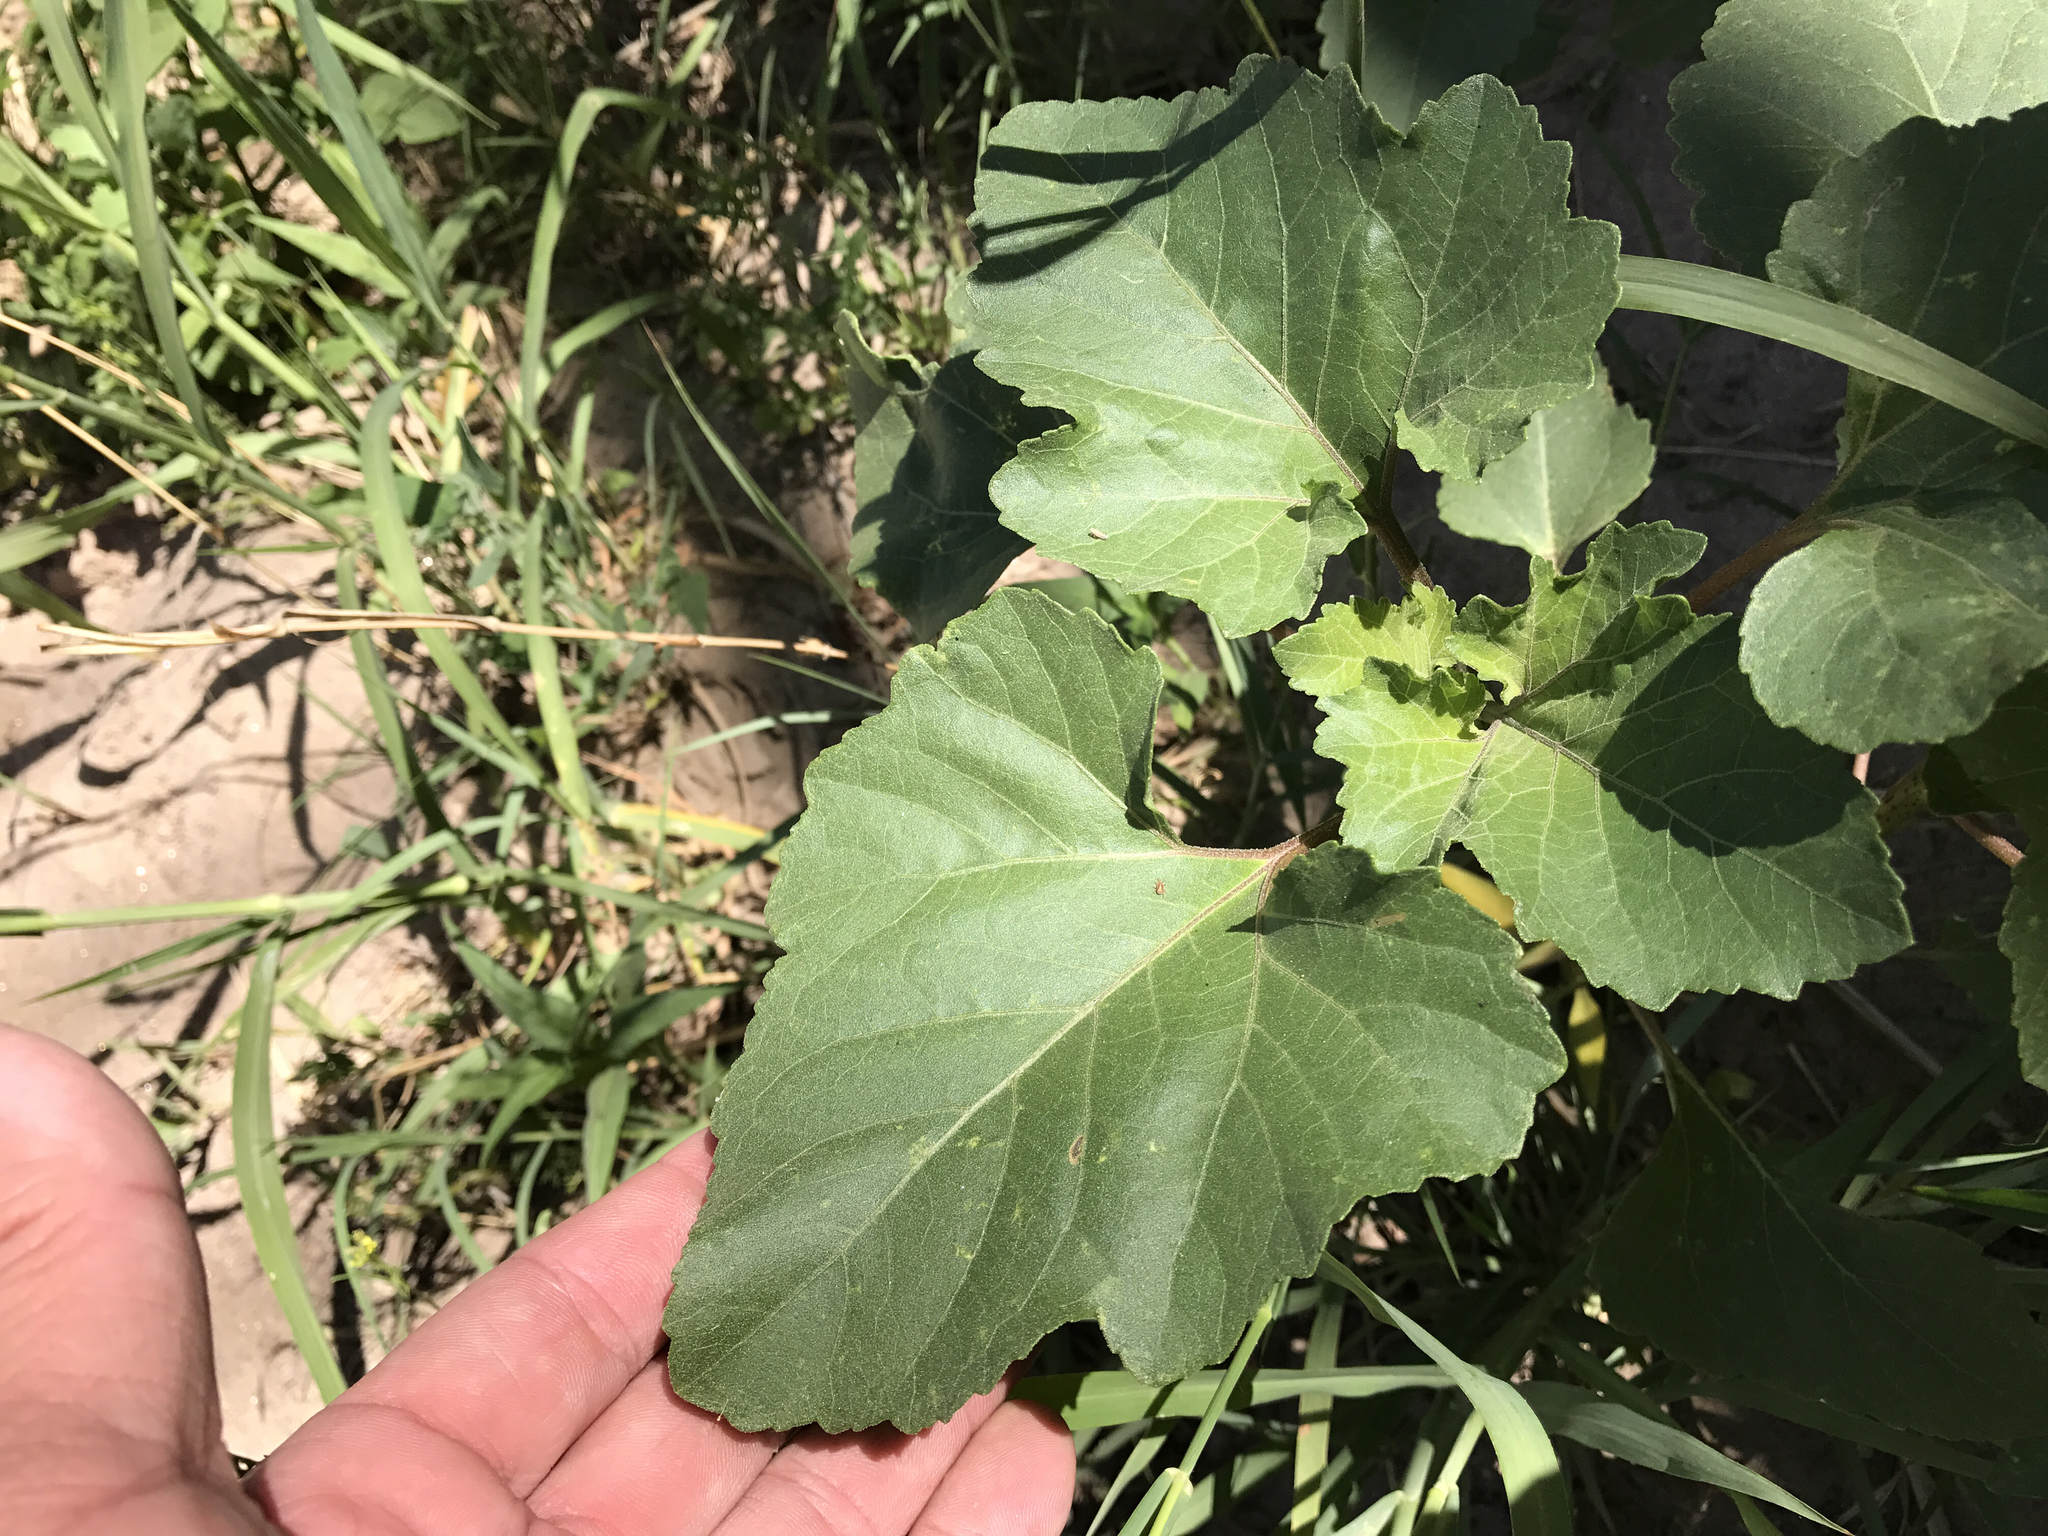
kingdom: Plantae
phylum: Tracheophyta
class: Magnoliopsida
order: Asterales
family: Asteraceae
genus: Xanthium
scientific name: Xanthium strumarium
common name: Rough cocklebur
